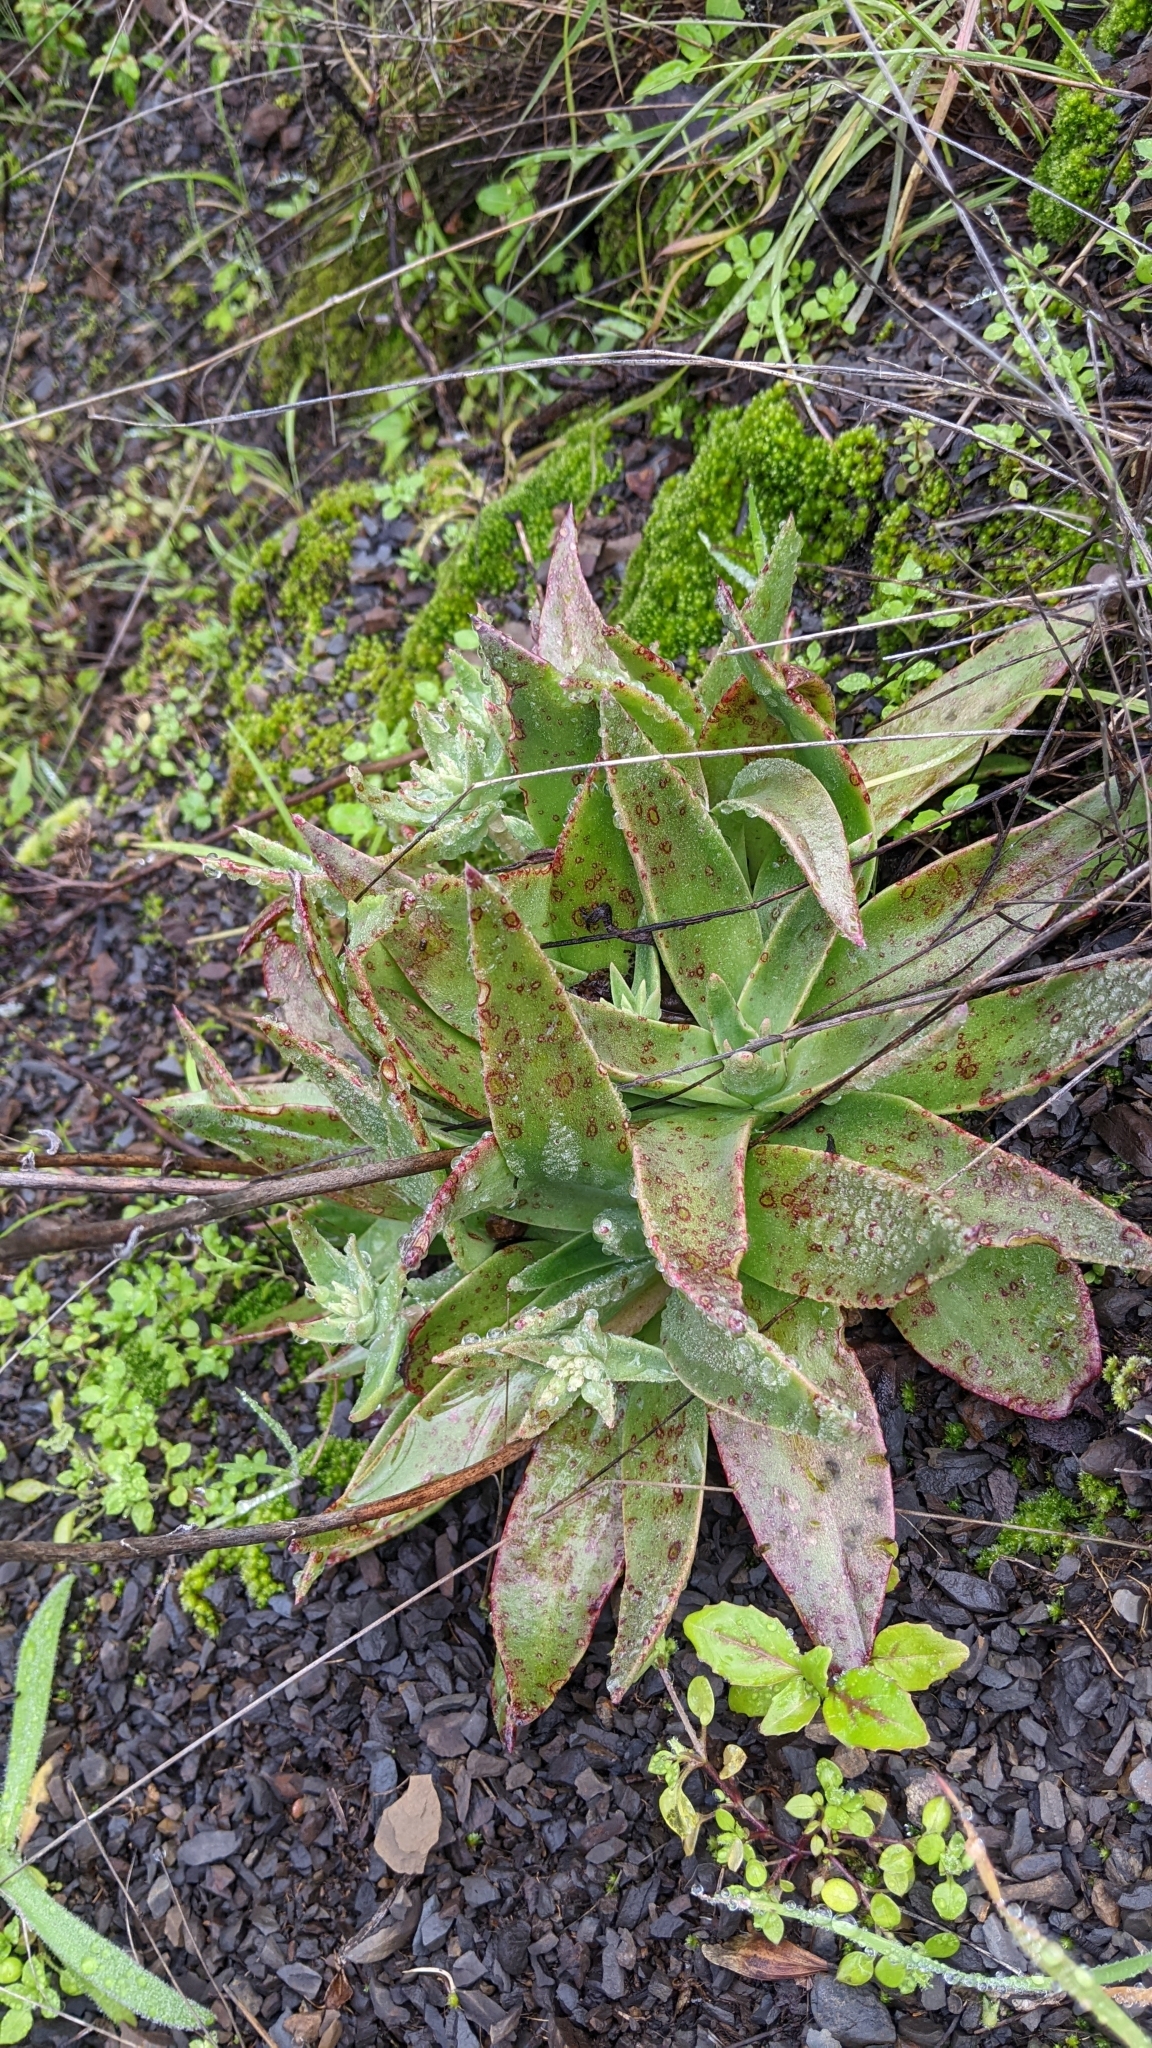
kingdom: Plantae
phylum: Tracheophyta
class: Magnoliopsida
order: Saxifragales
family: Crassulaceae
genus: Dudleya
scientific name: Dudleya lanceolata
